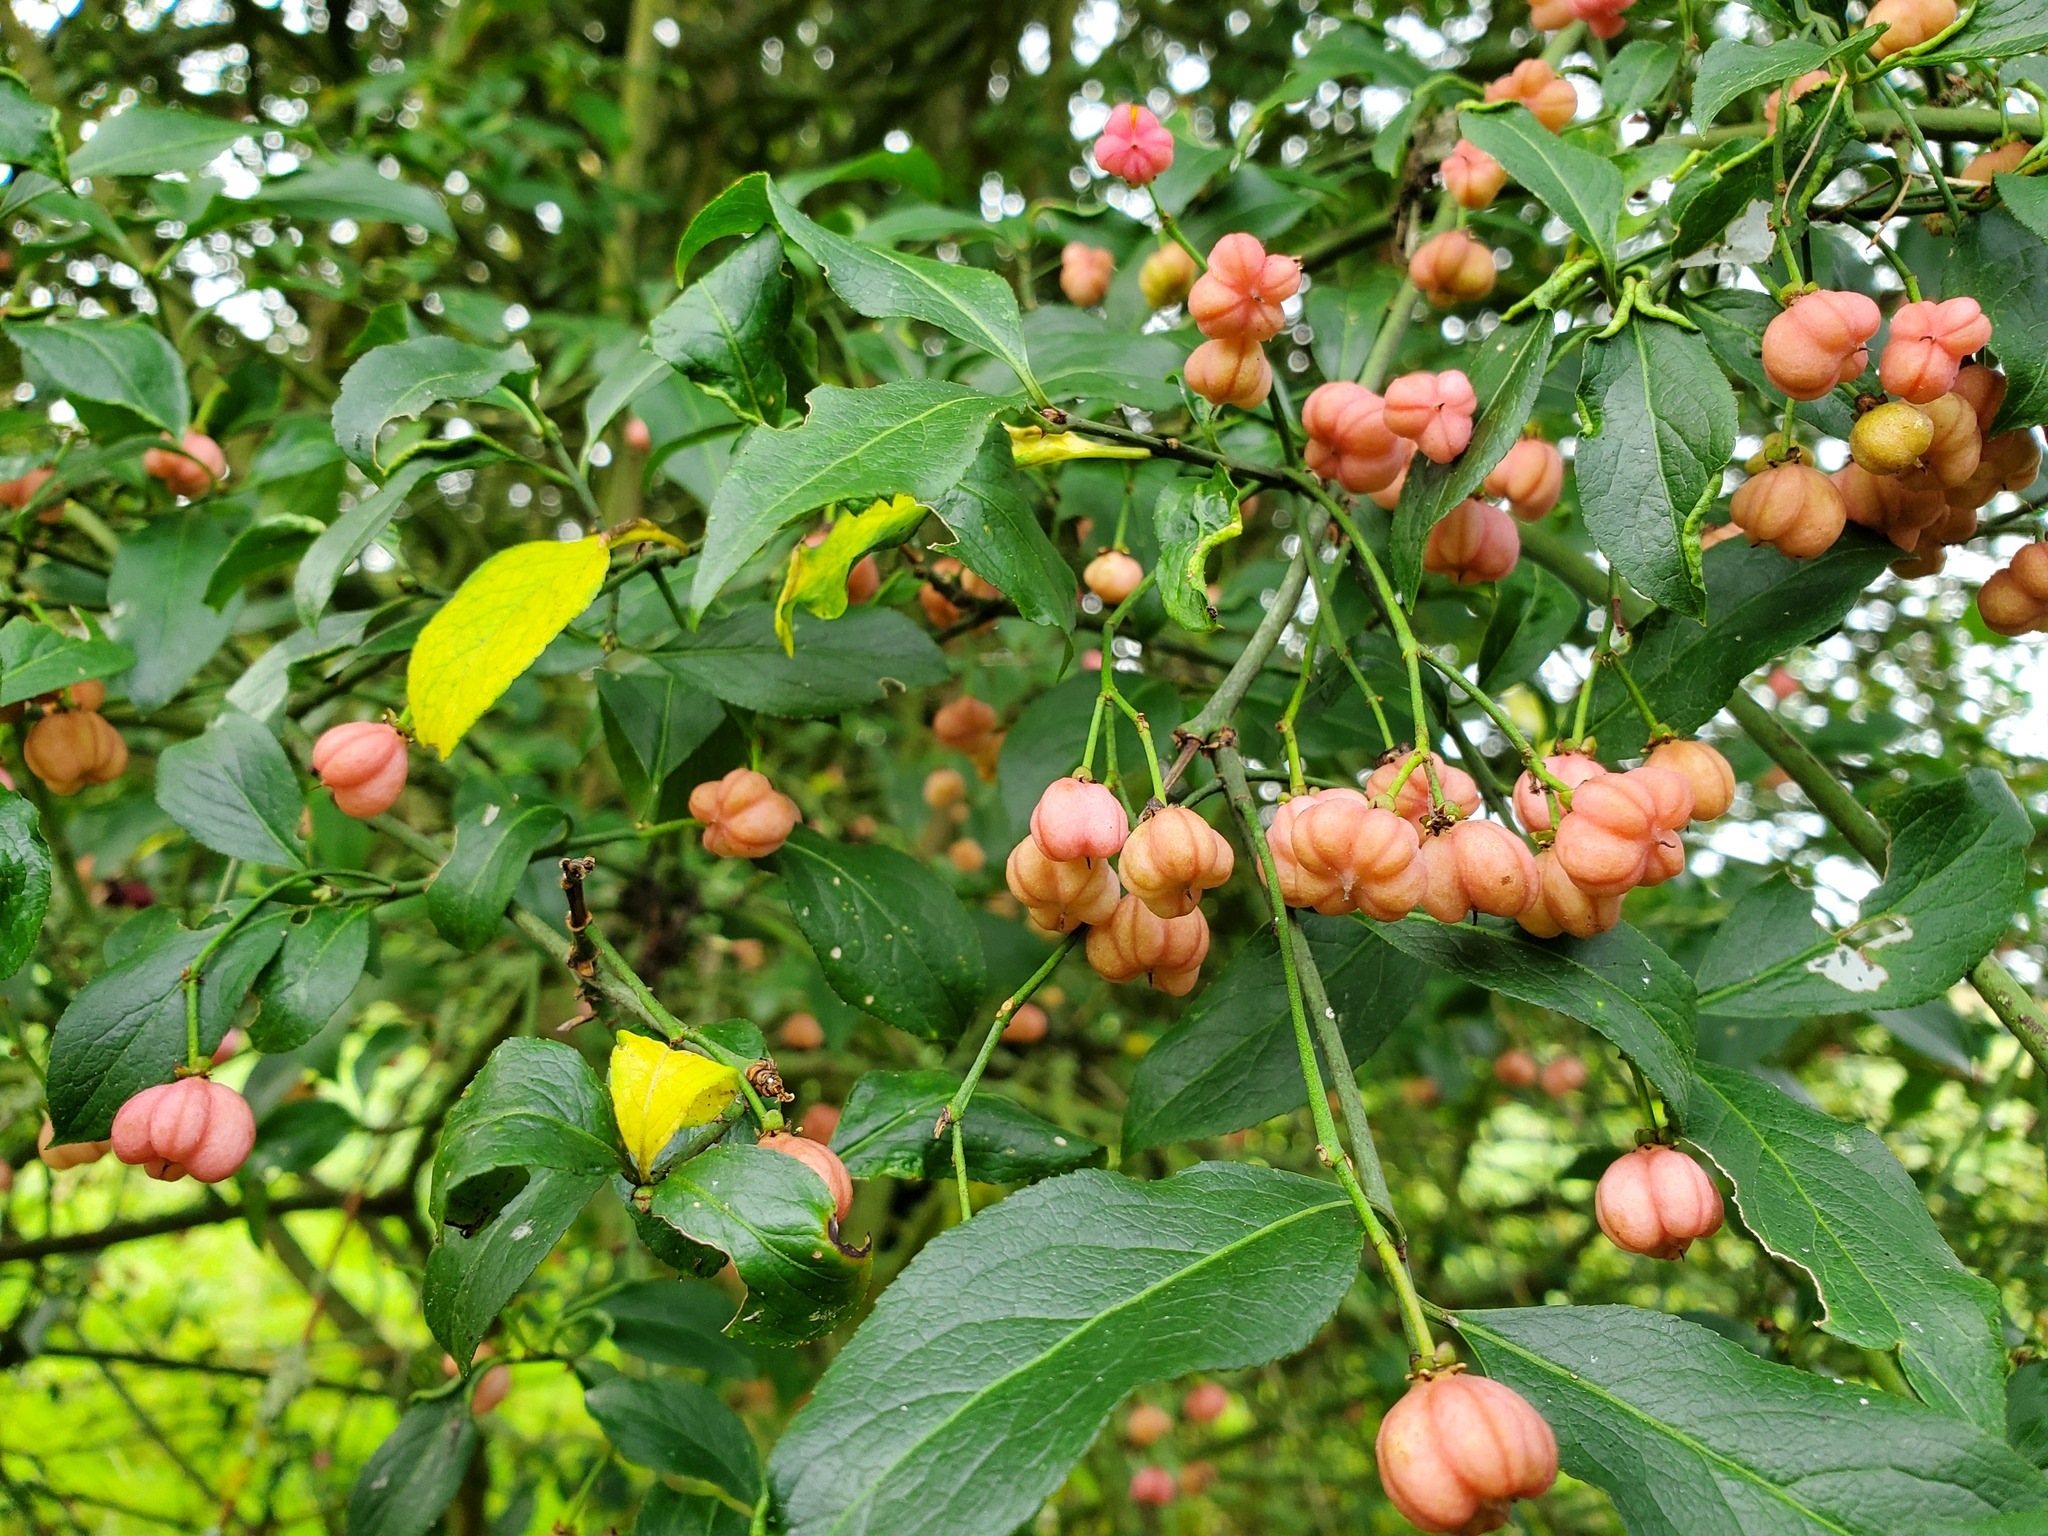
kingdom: Plantae
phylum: Tracheophyta
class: Magnoliopsida
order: Celastrales
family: Celastraceae
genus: Euonymus
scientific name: Euonymus europaeus
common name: Spindle
